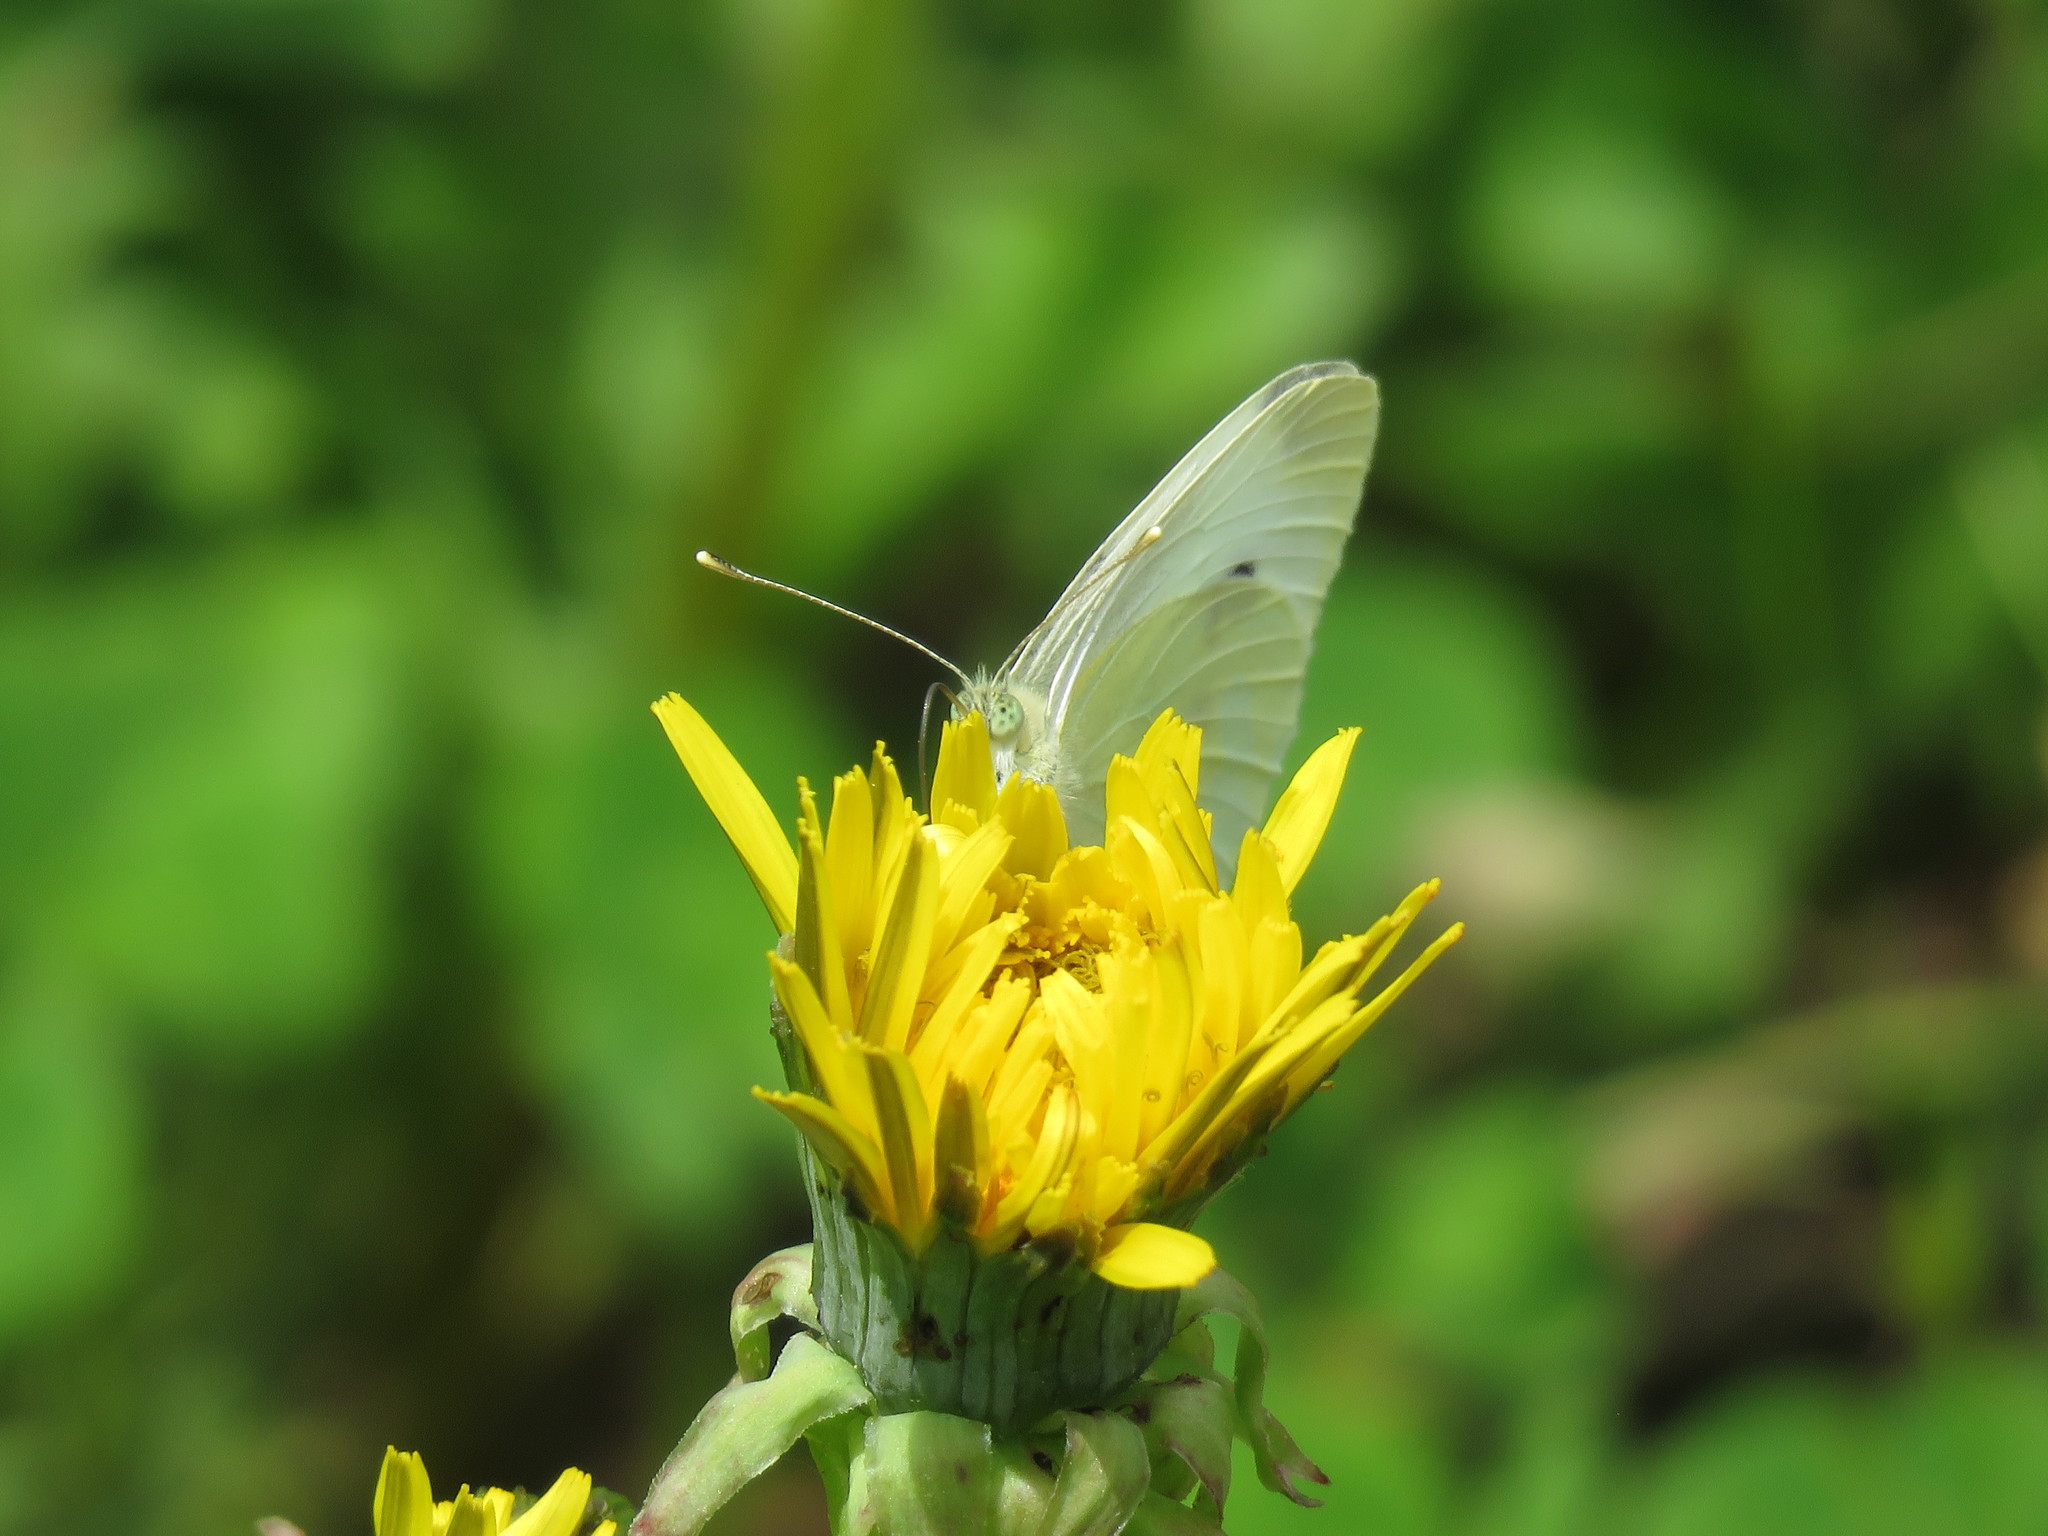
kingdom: Animalia
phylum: Arthropoda
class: Insecta
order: Lepidoptera
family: Pieridae
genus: Pieris
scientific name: Pieris rapae
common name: Small white
